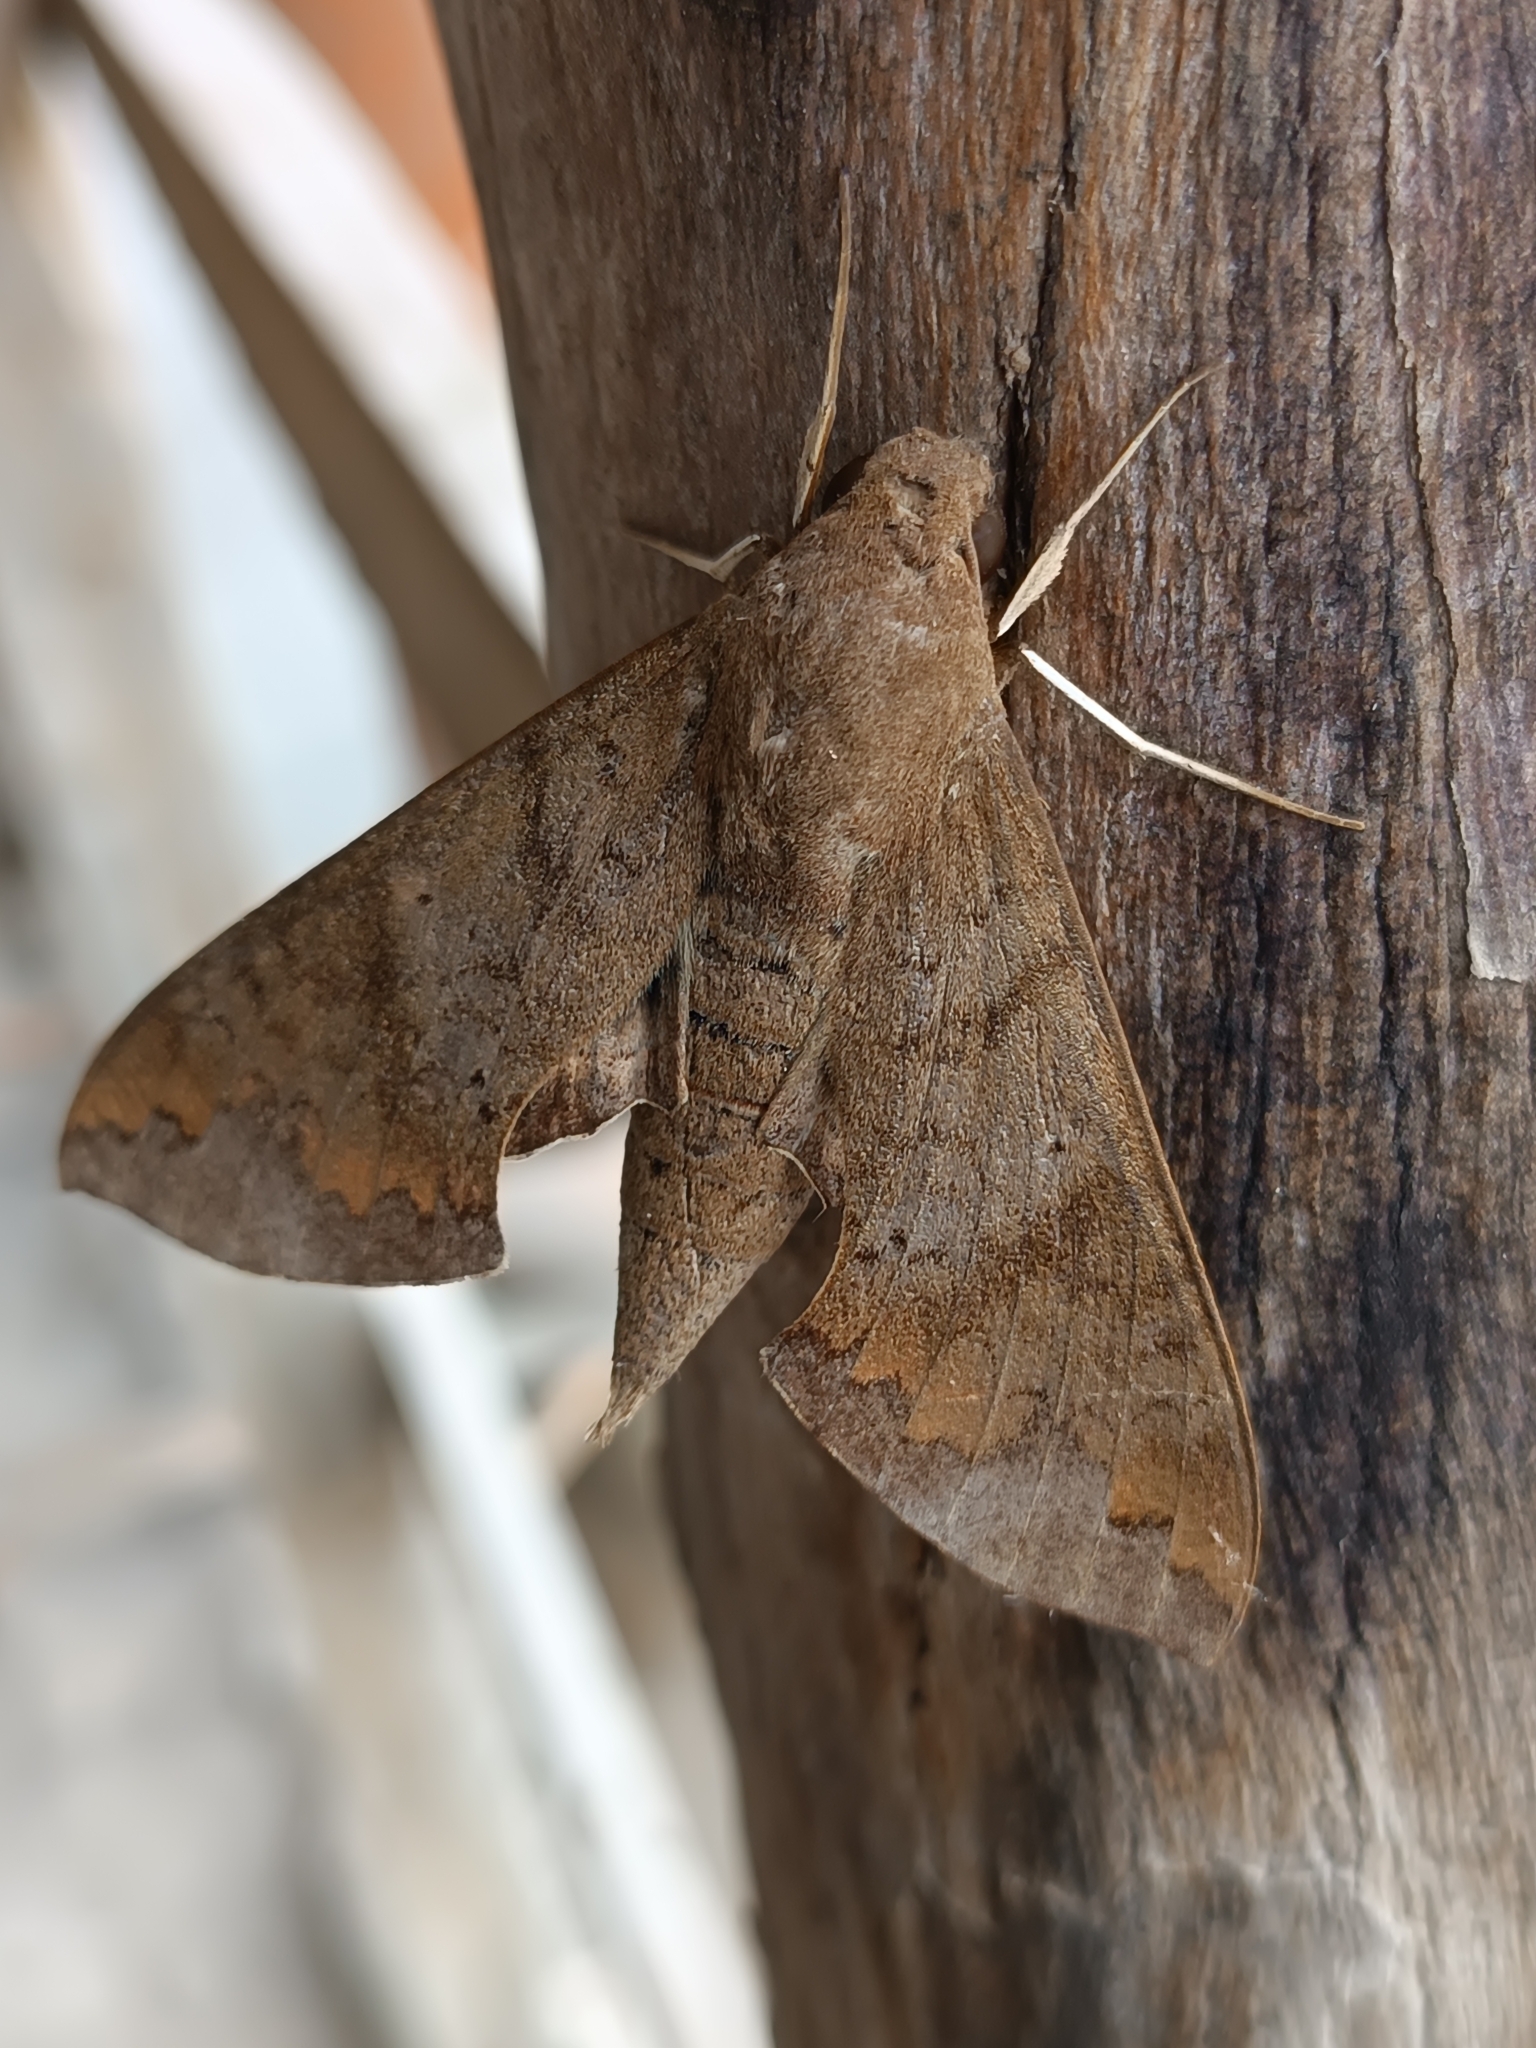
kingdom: Animalia
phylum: Arthropoda
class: Insecta
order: Lepidoptera
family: Sphingidae
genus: Pachylioides
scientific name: Pachylioides resumens
